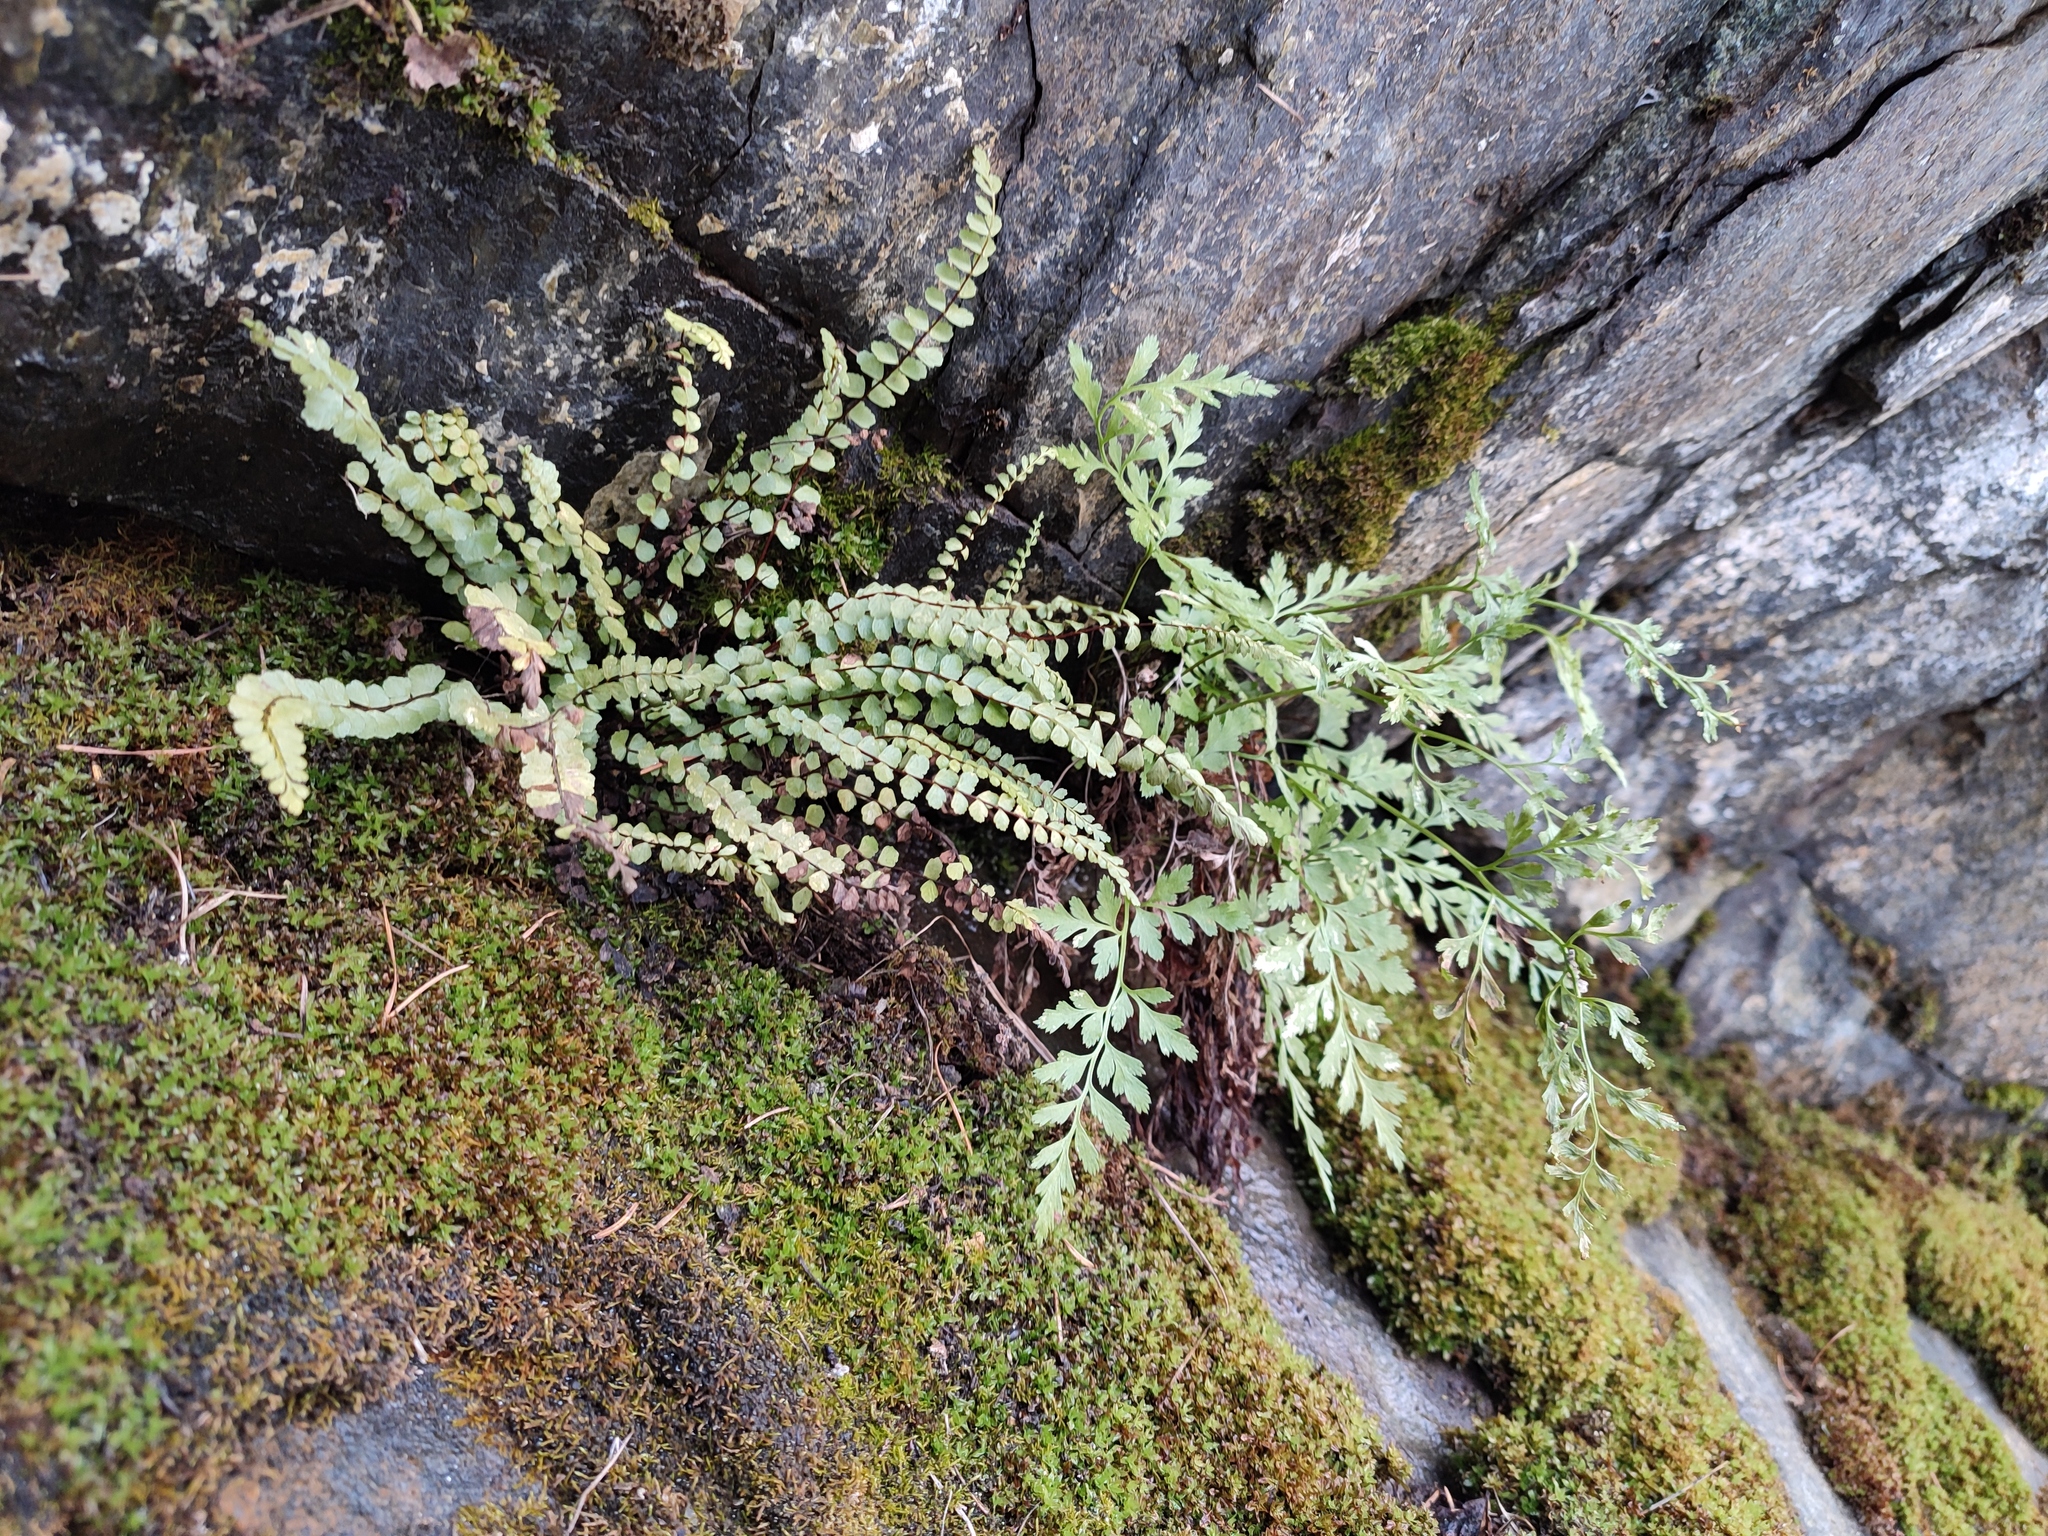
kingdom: Plantae
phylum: Tracheophyta
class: Polypodiopsida
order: Polypodiales
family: Aspleniaceae
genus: Asplenium
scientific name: Asplenium cuneifolium
